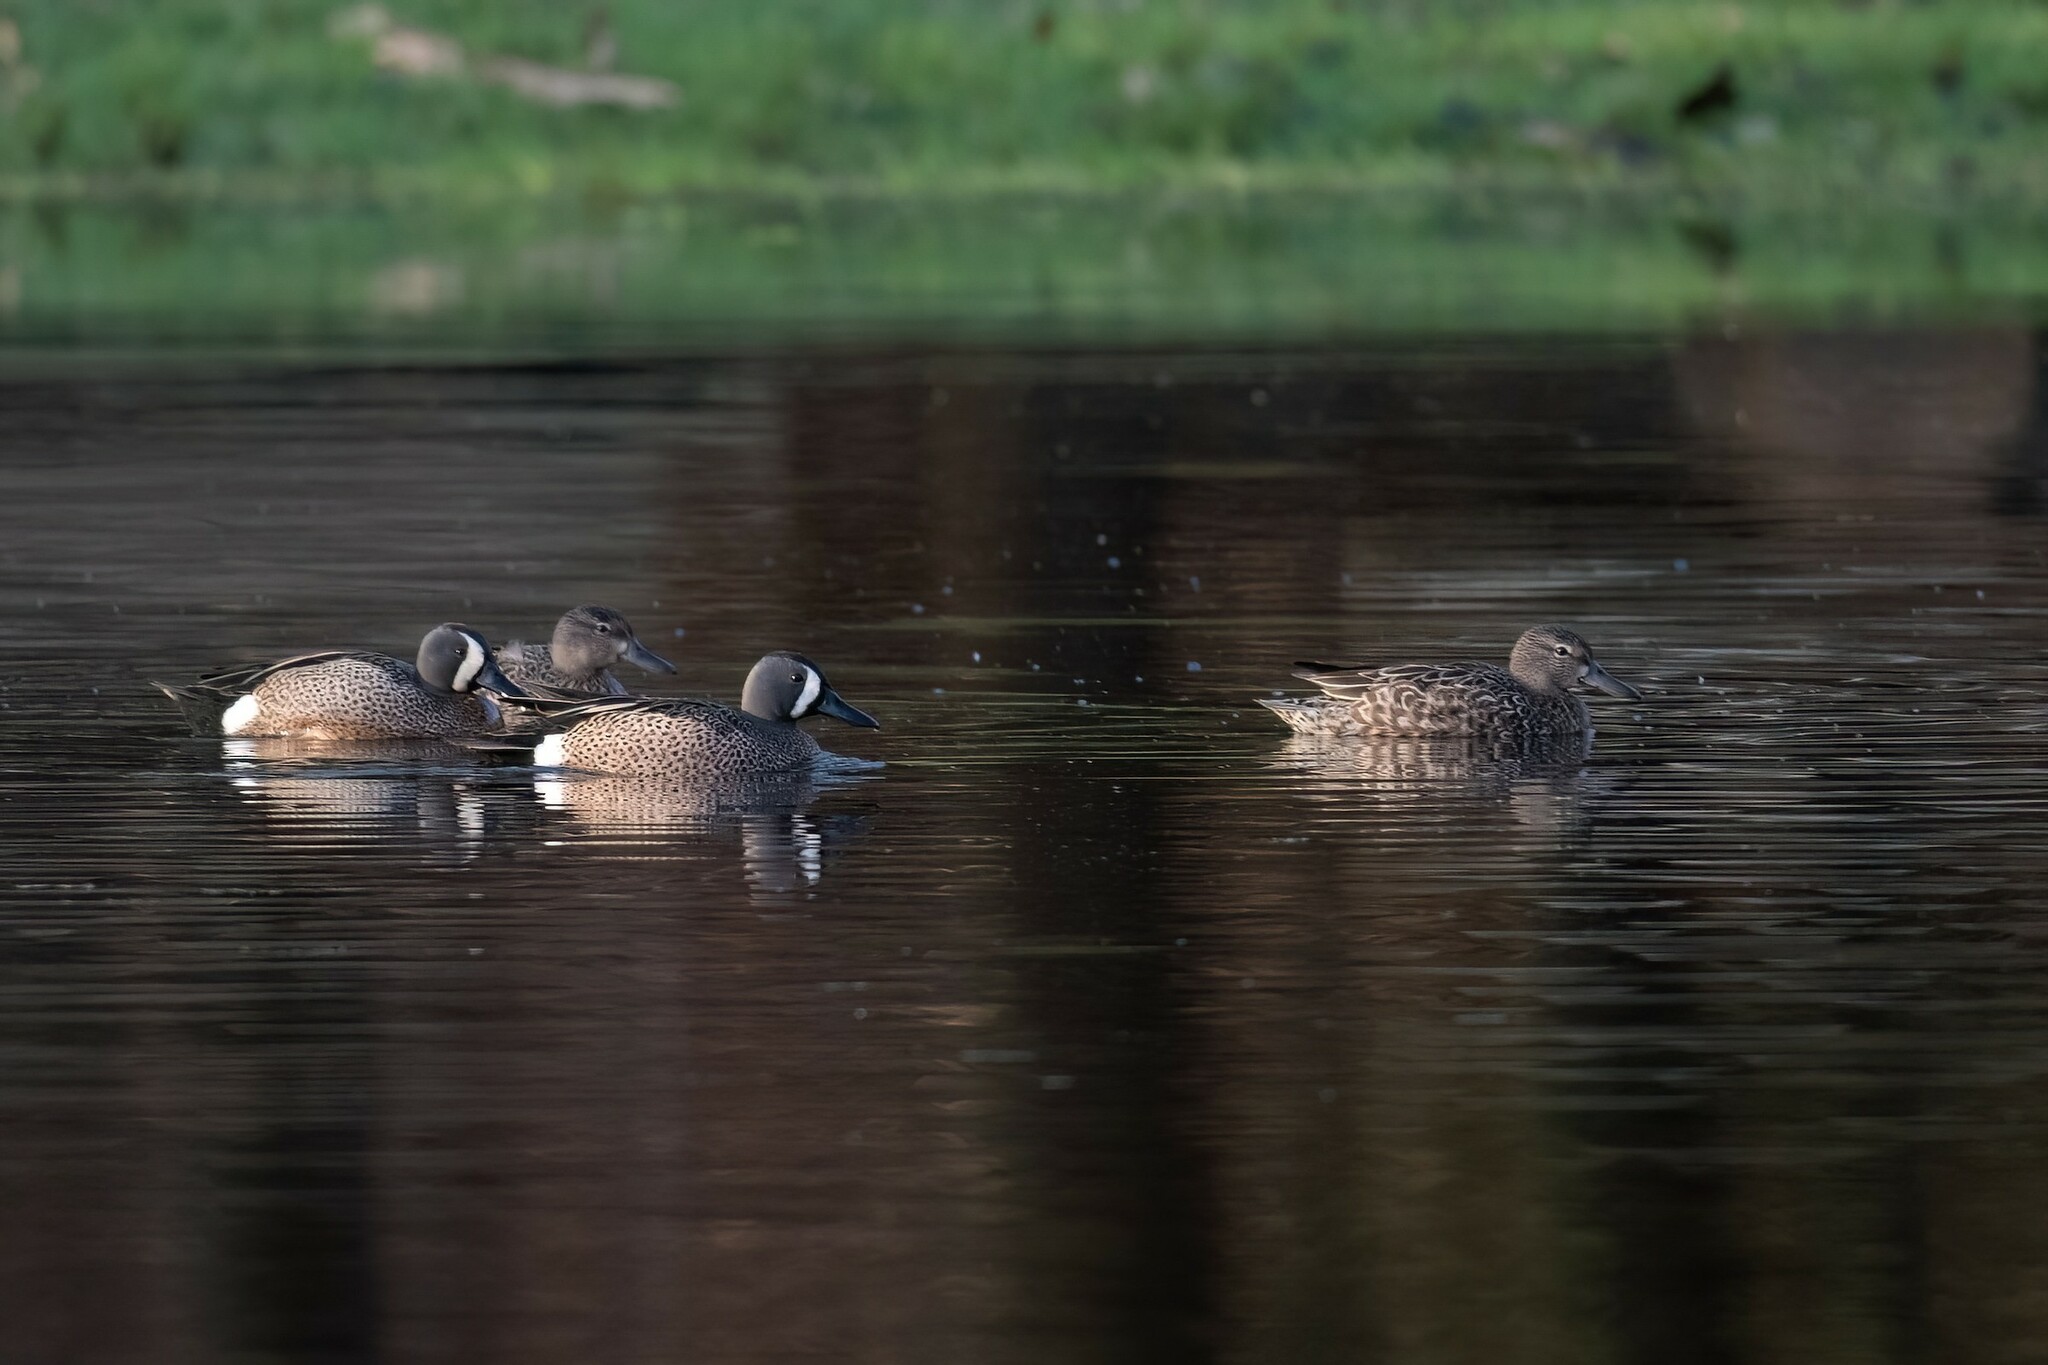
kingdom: Animalia
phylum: Chordata
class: Aves
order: Anseriformes
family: Anatidae
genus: Spatula
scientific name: Spatula discors
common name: Blue-winged teal
